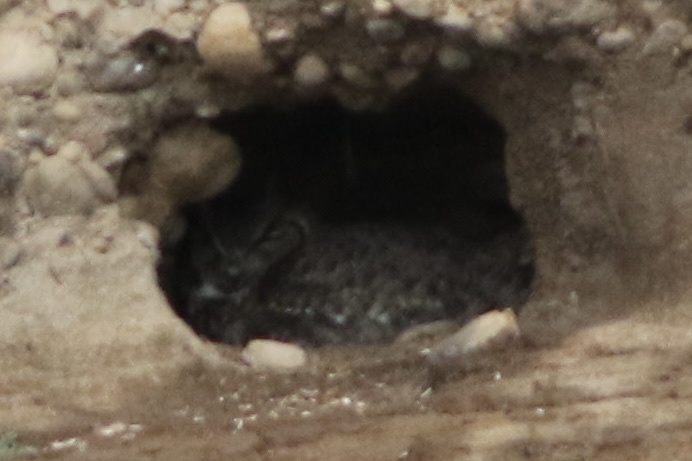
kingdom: Animalia
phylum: Chordata
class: Aves
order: Strigiformes
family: Strigidae
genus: Bubo
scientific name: Bubo virginianus
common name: Great horned owl
